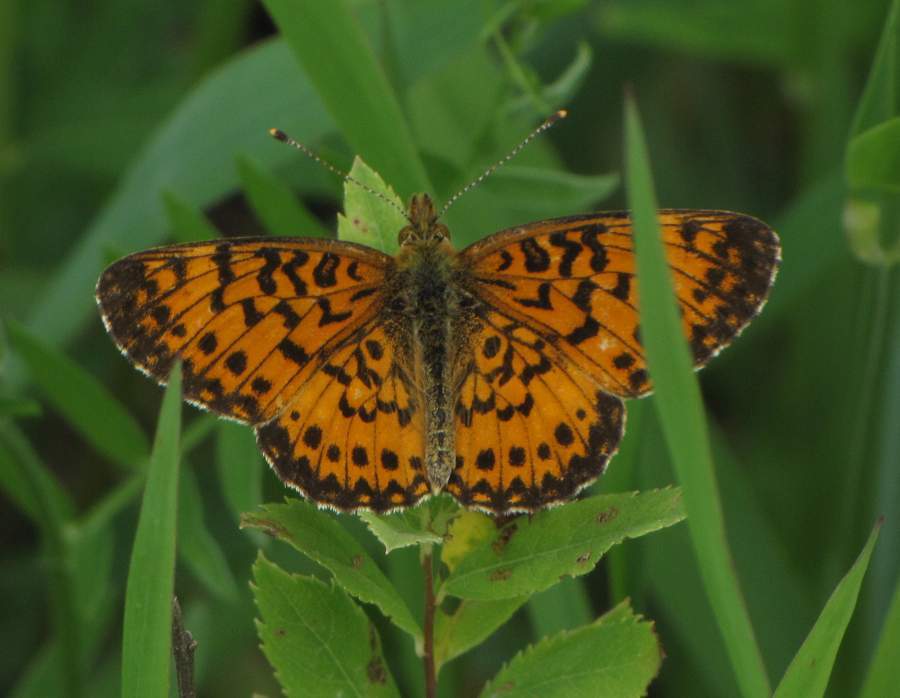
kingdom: Animalia
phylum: Arthropoda
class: Insecta
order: Lepidoptera
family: Nymphalidae
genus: Boloria
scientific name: Boloria
